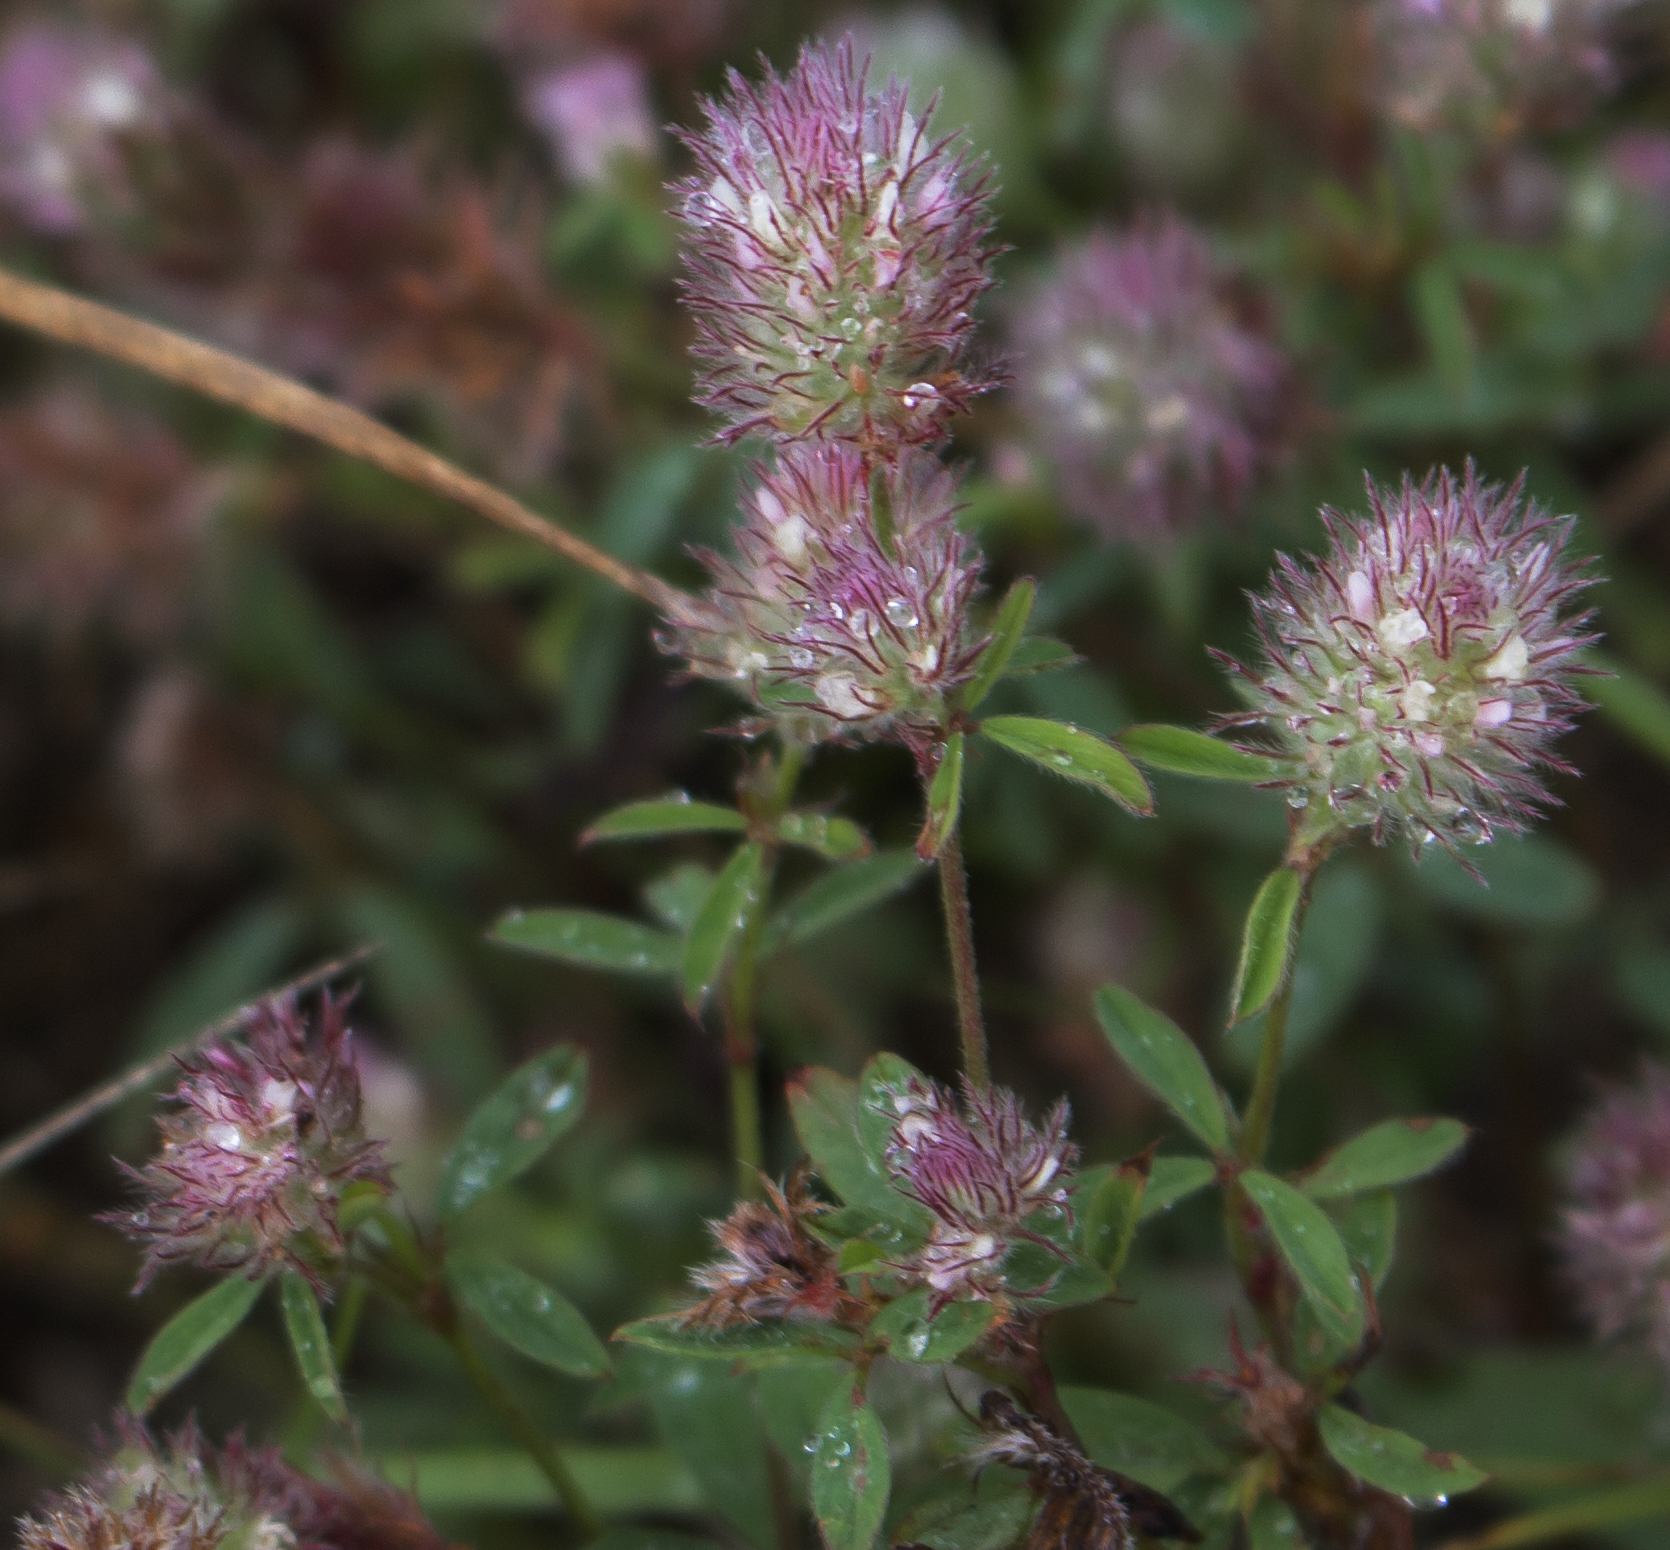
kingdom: Plantae
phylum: Tracheophyta
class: Magnoliopsida
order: Fabales
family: Fabaceae
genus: Trifolium
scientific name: Trifolium arvense
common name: Hare's-foot clover
